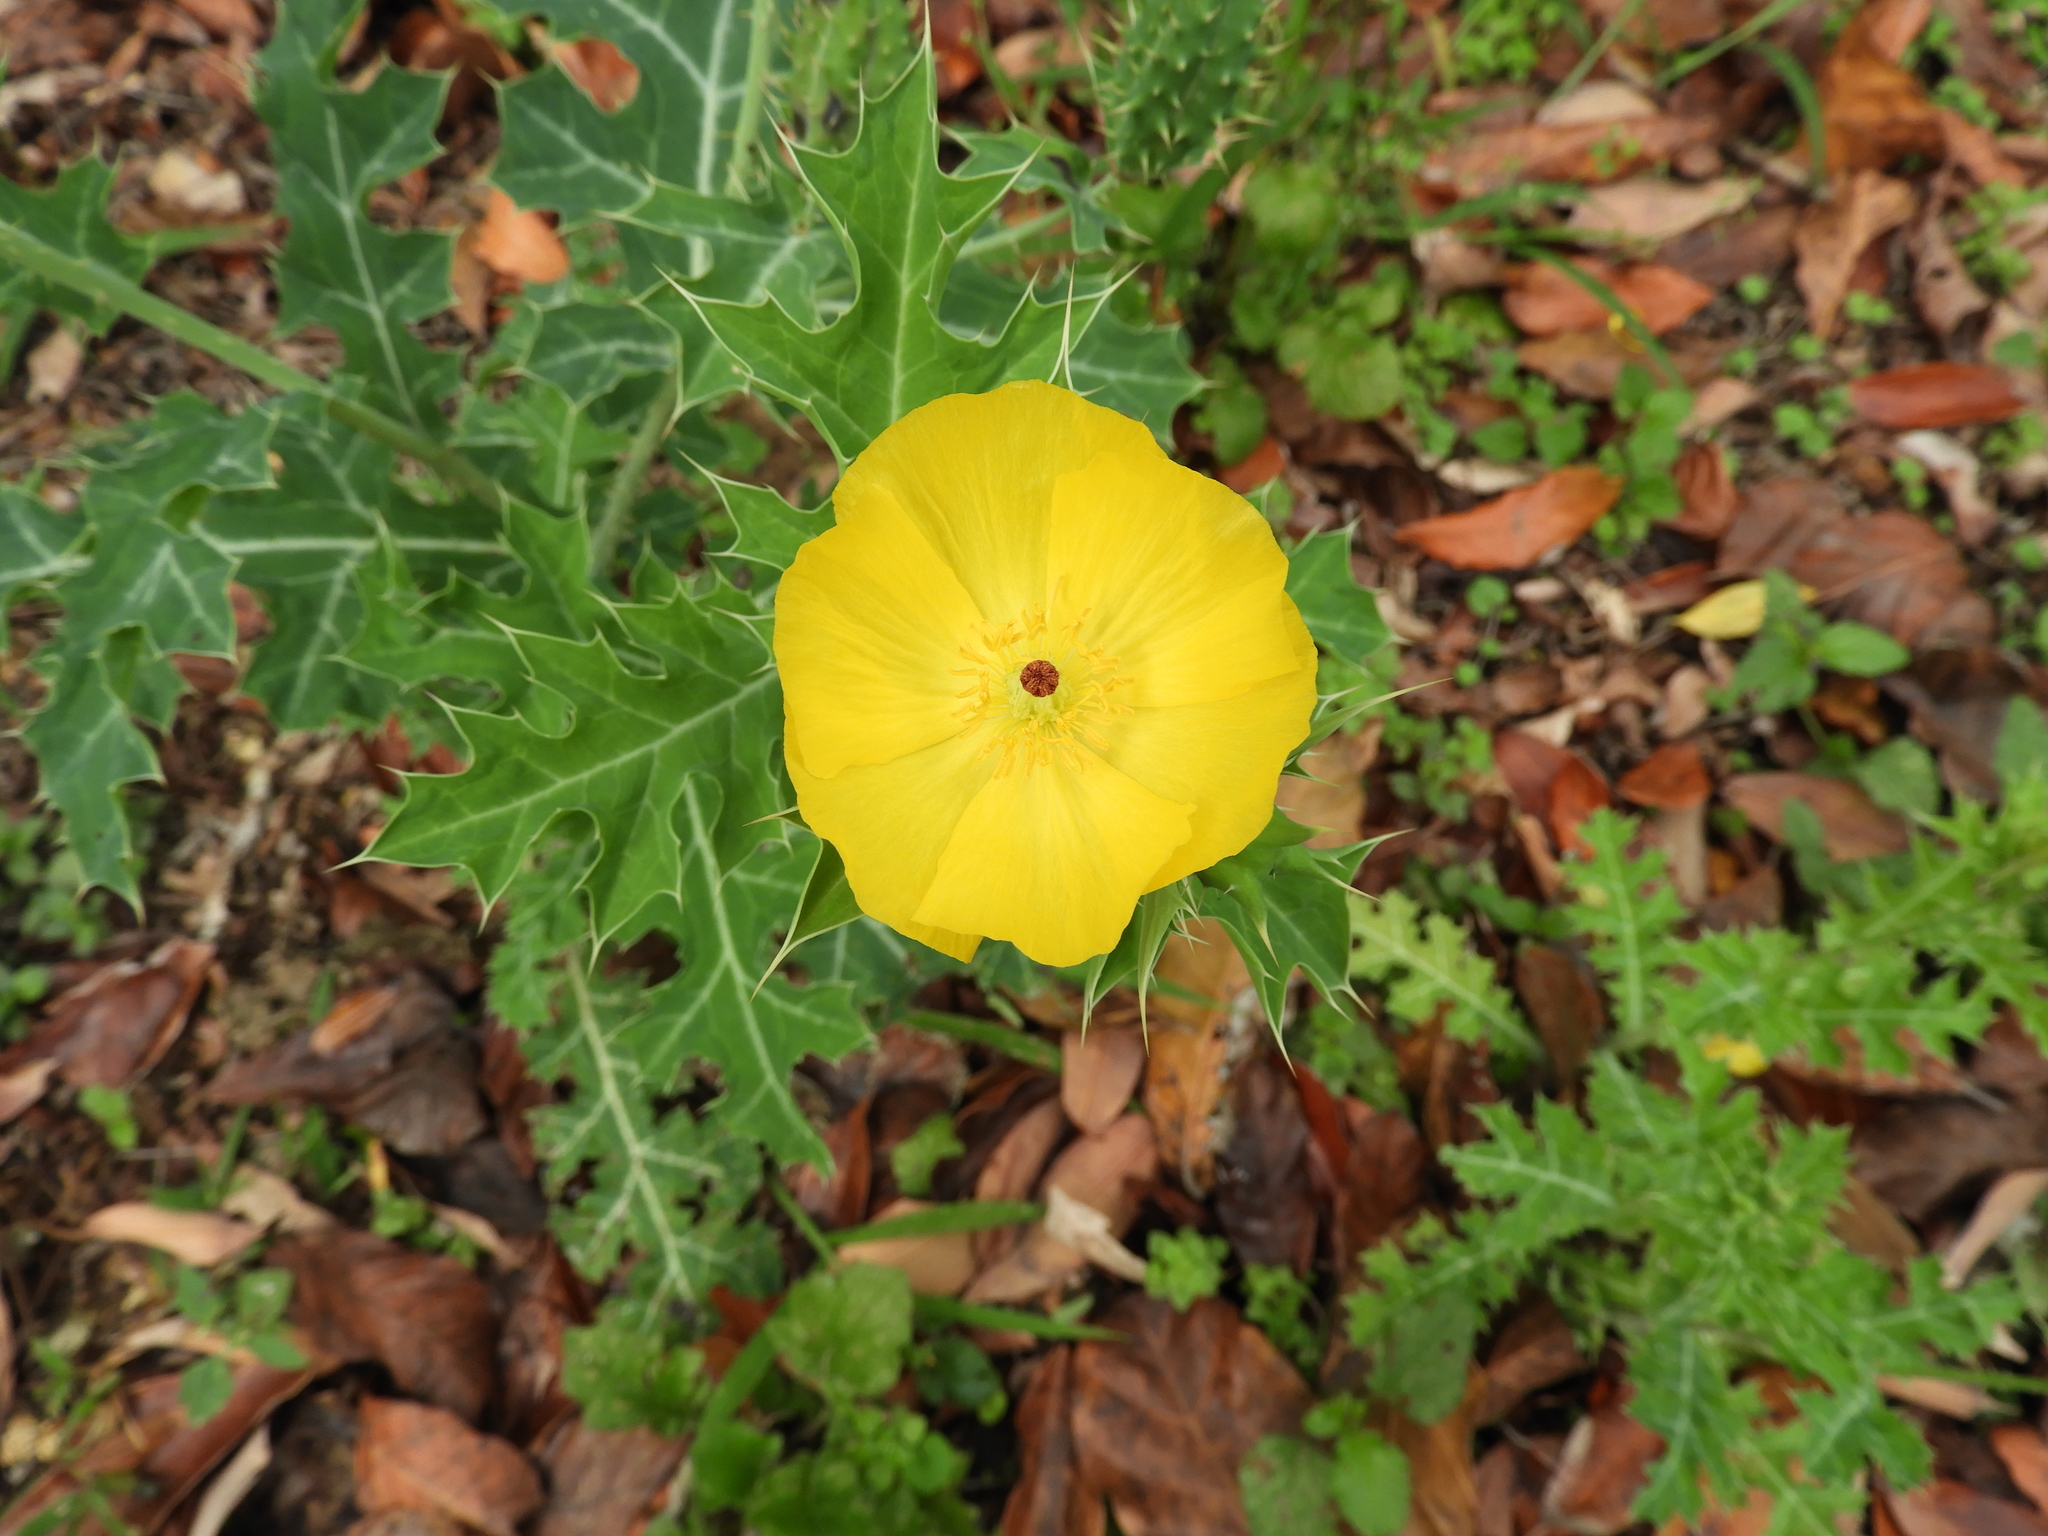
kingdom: Plantae
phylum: Tracheophyta
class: Magnoliopsida
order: Ranunculales
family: Papaveraceae
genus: Argemone
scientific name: Argemone mexicana
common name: Mexican poppy
